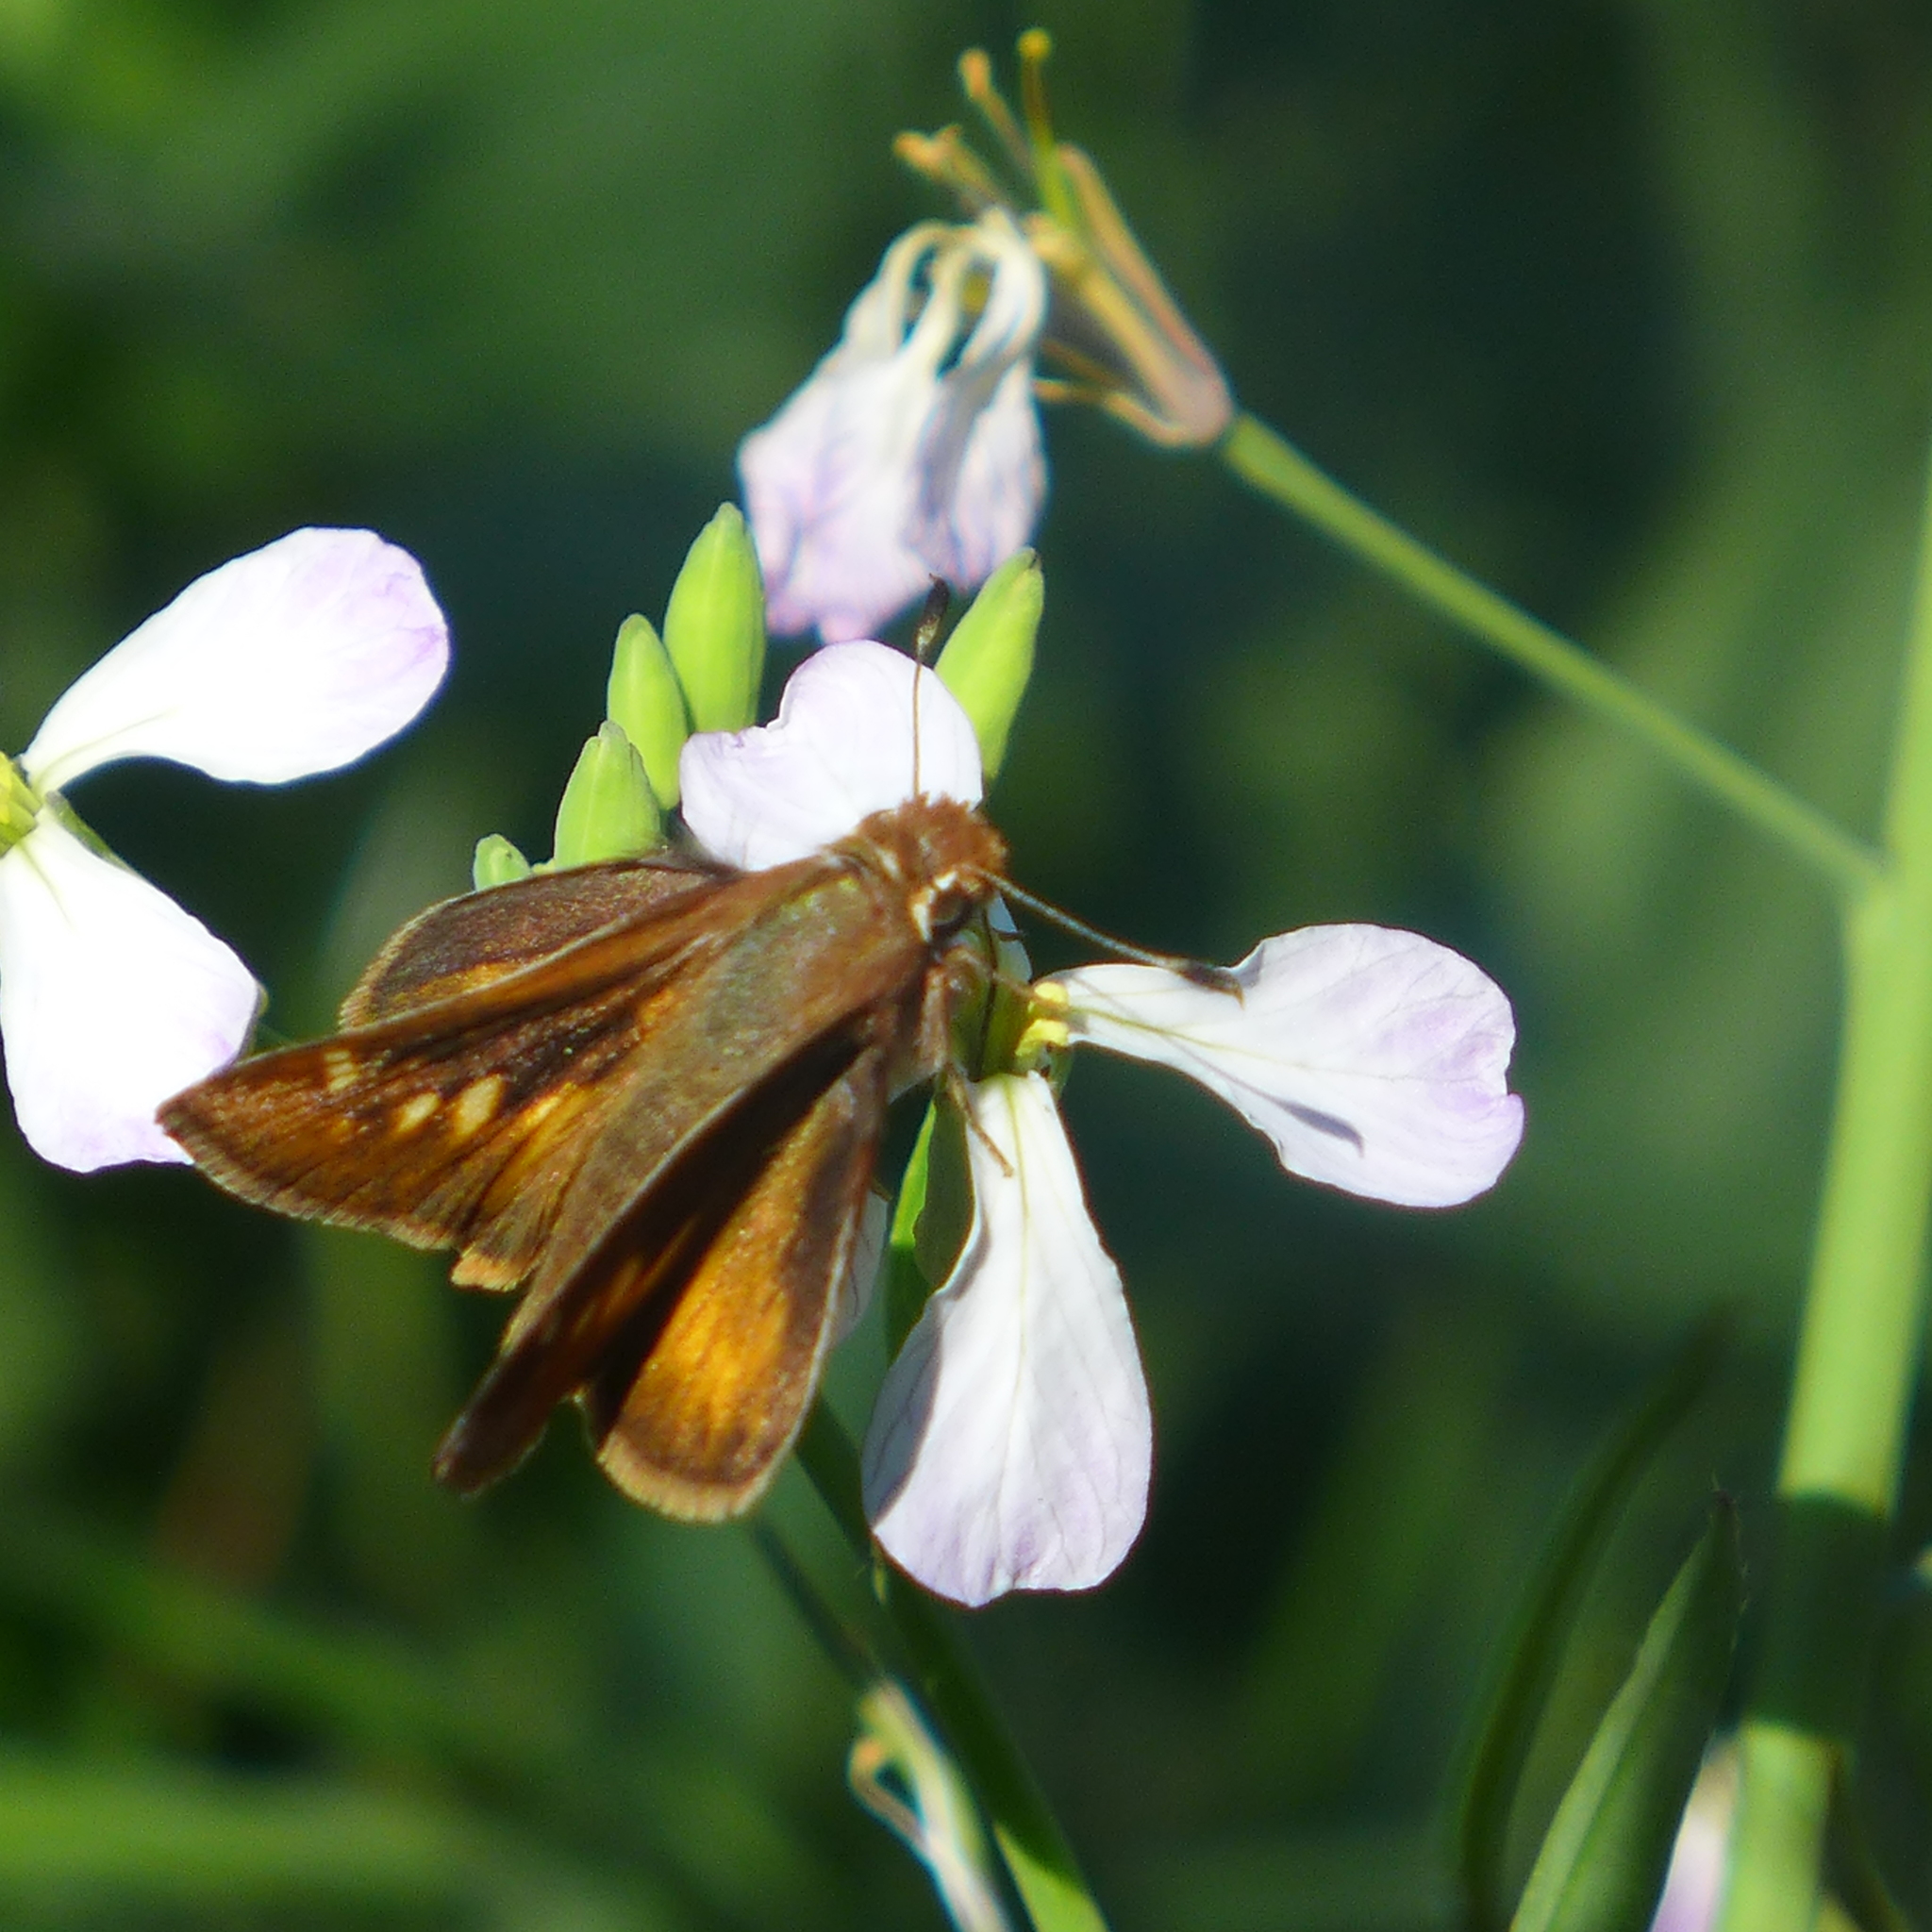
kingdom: Animalia
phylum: Arthropoda
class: Insecta
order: Lepidoptera
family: Hesperiidae
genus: Lon
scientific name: Lon melane
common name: Umber skipper
